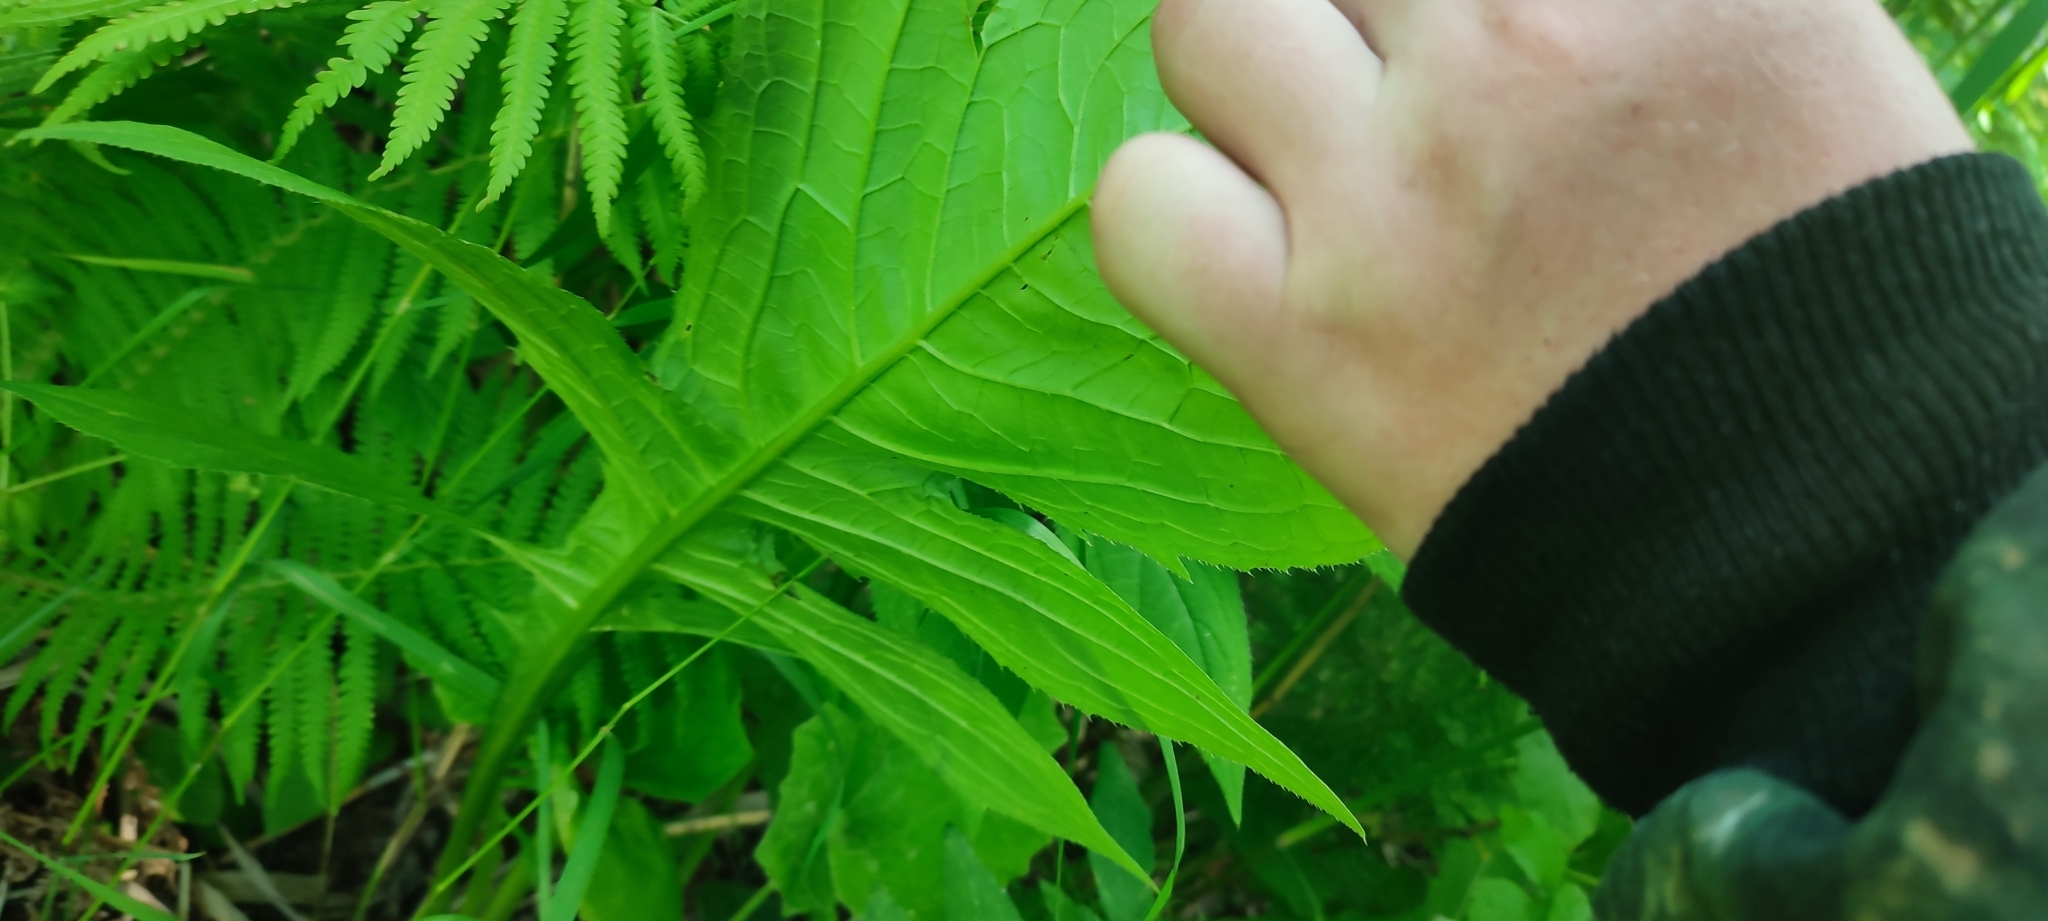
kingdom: Plantae
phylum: Tracheophyta
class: Magnoliopsida
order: Asterales
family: Asteraceae
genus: Cirsium
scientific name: Cirsium oleraceum
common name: Cabbage thistle
